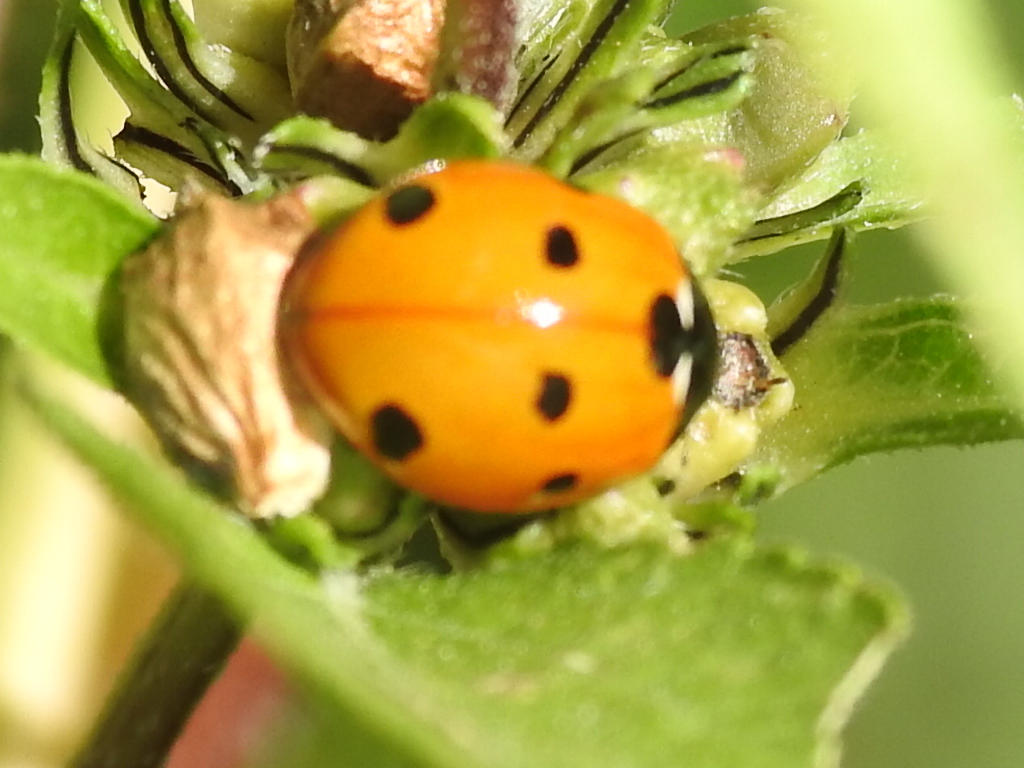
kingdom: Animalia
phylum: Arthropoda
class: Insecta
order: Coleoptera
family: Coccinellidae
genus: Coccinella
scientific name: Coccinella septempunctata
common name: Sevenspotted lady beetle
